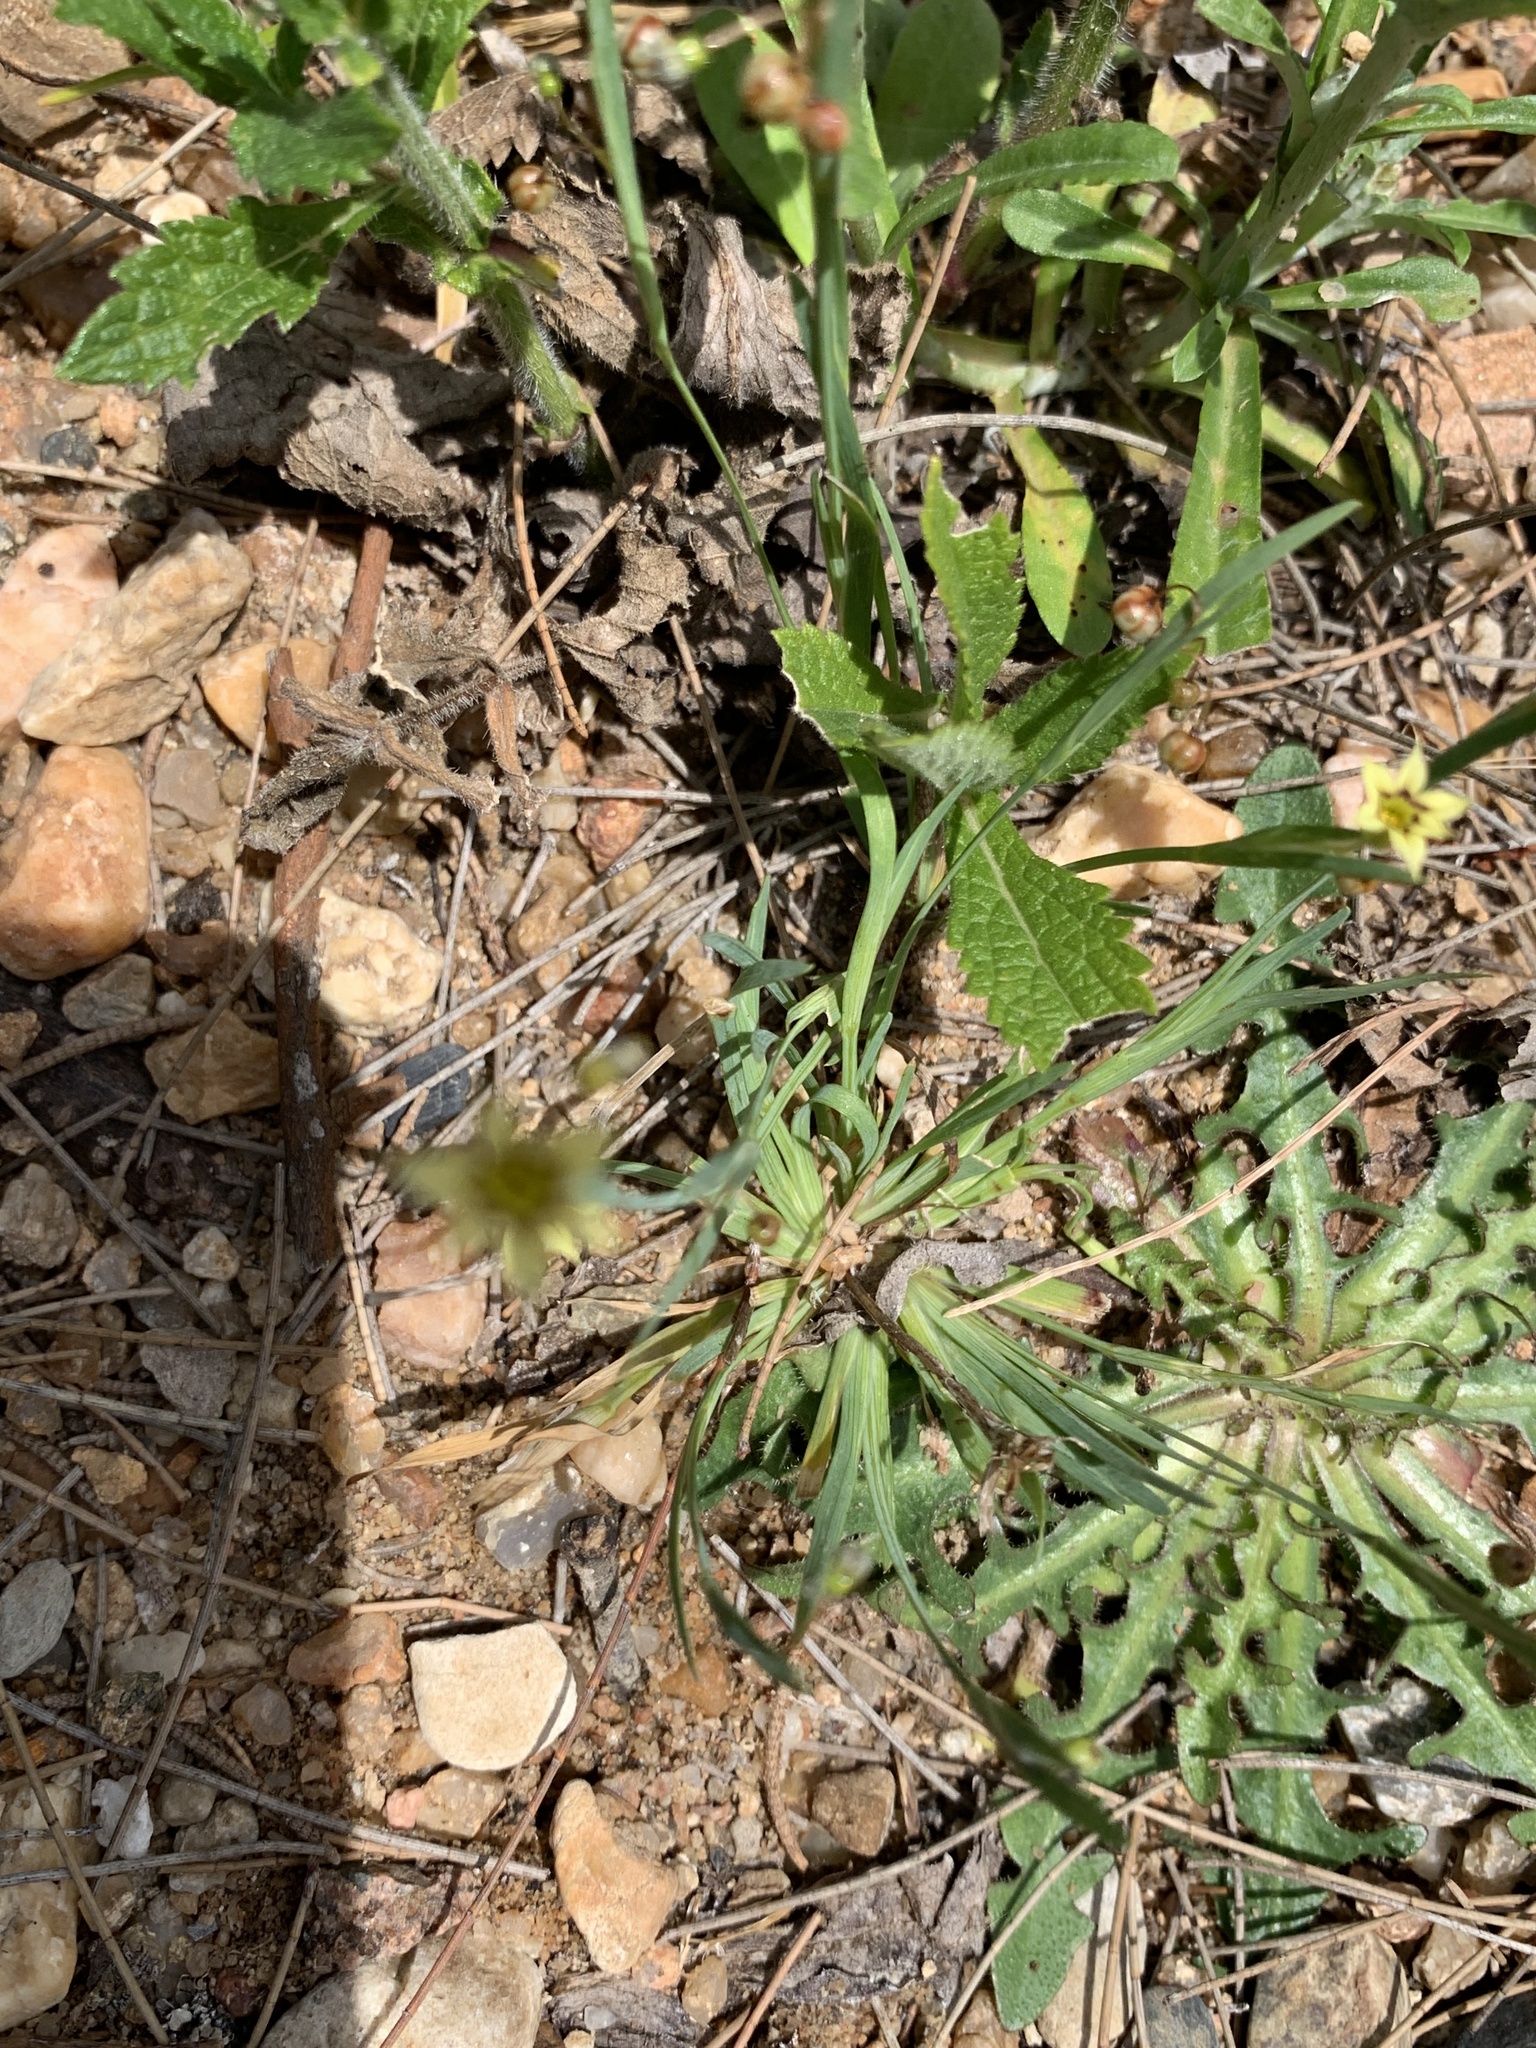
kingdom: Plantae
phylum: Tracheophyta
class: Liliopsida
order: Asparagales
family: Iridaceae
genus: Sisyrinchium
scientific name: Sisyrinchium micranthum
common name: Bermuda pigroot
